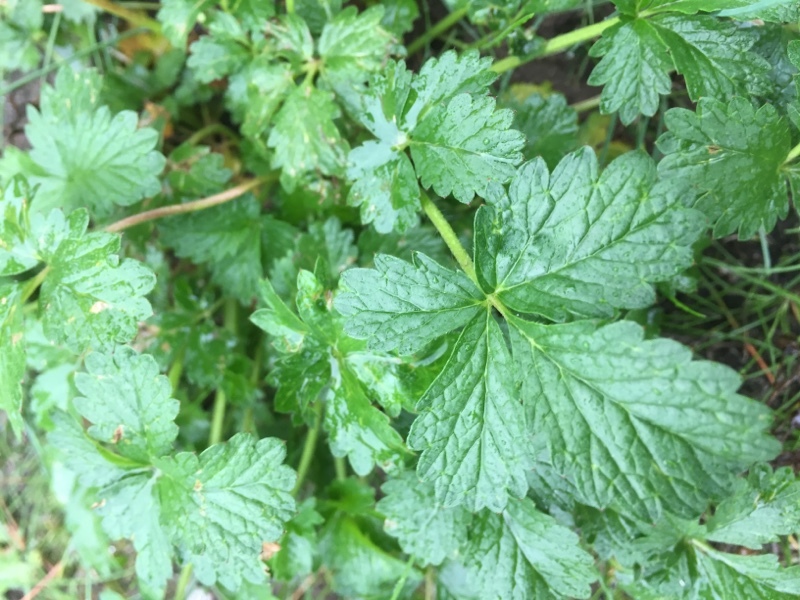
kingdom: Plantae
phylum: Tracheophyta
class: Magnoliopsida
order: Rosales
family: Rosaceae
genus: Potentilla
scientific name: Potentilla intermedia
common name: Downy cinquefoil
